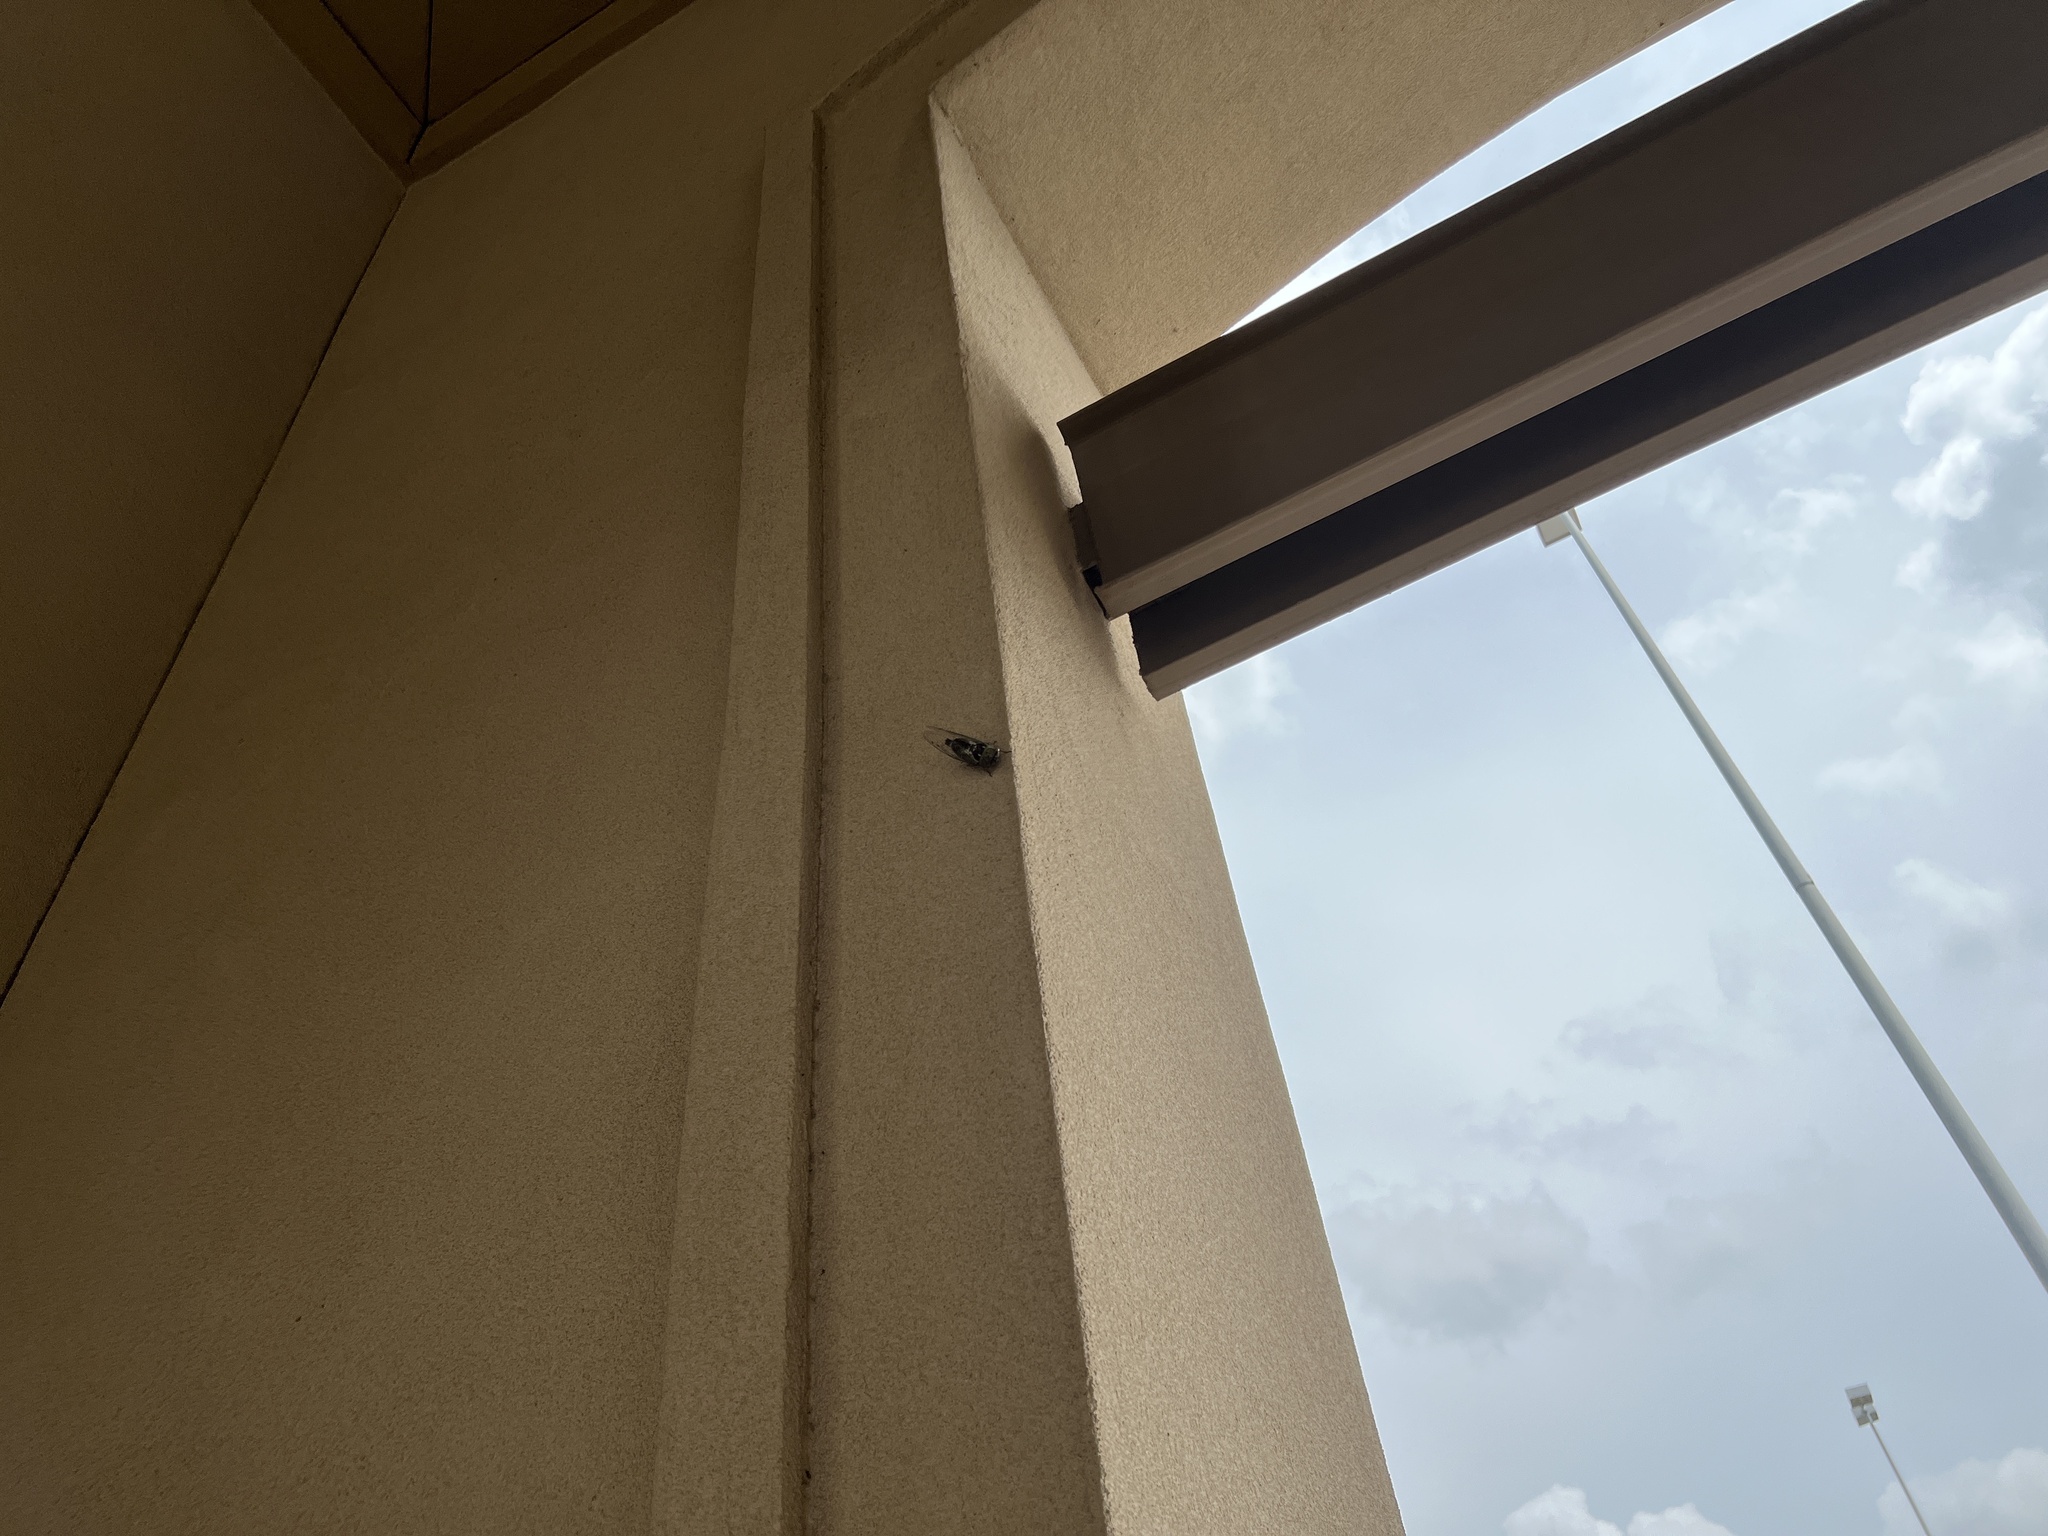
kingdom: Animalia
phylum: Arthropoda
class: Insecta
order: Hemiptera
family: Cicadidae
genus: Megatibicen
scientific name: Megatibicen resh
